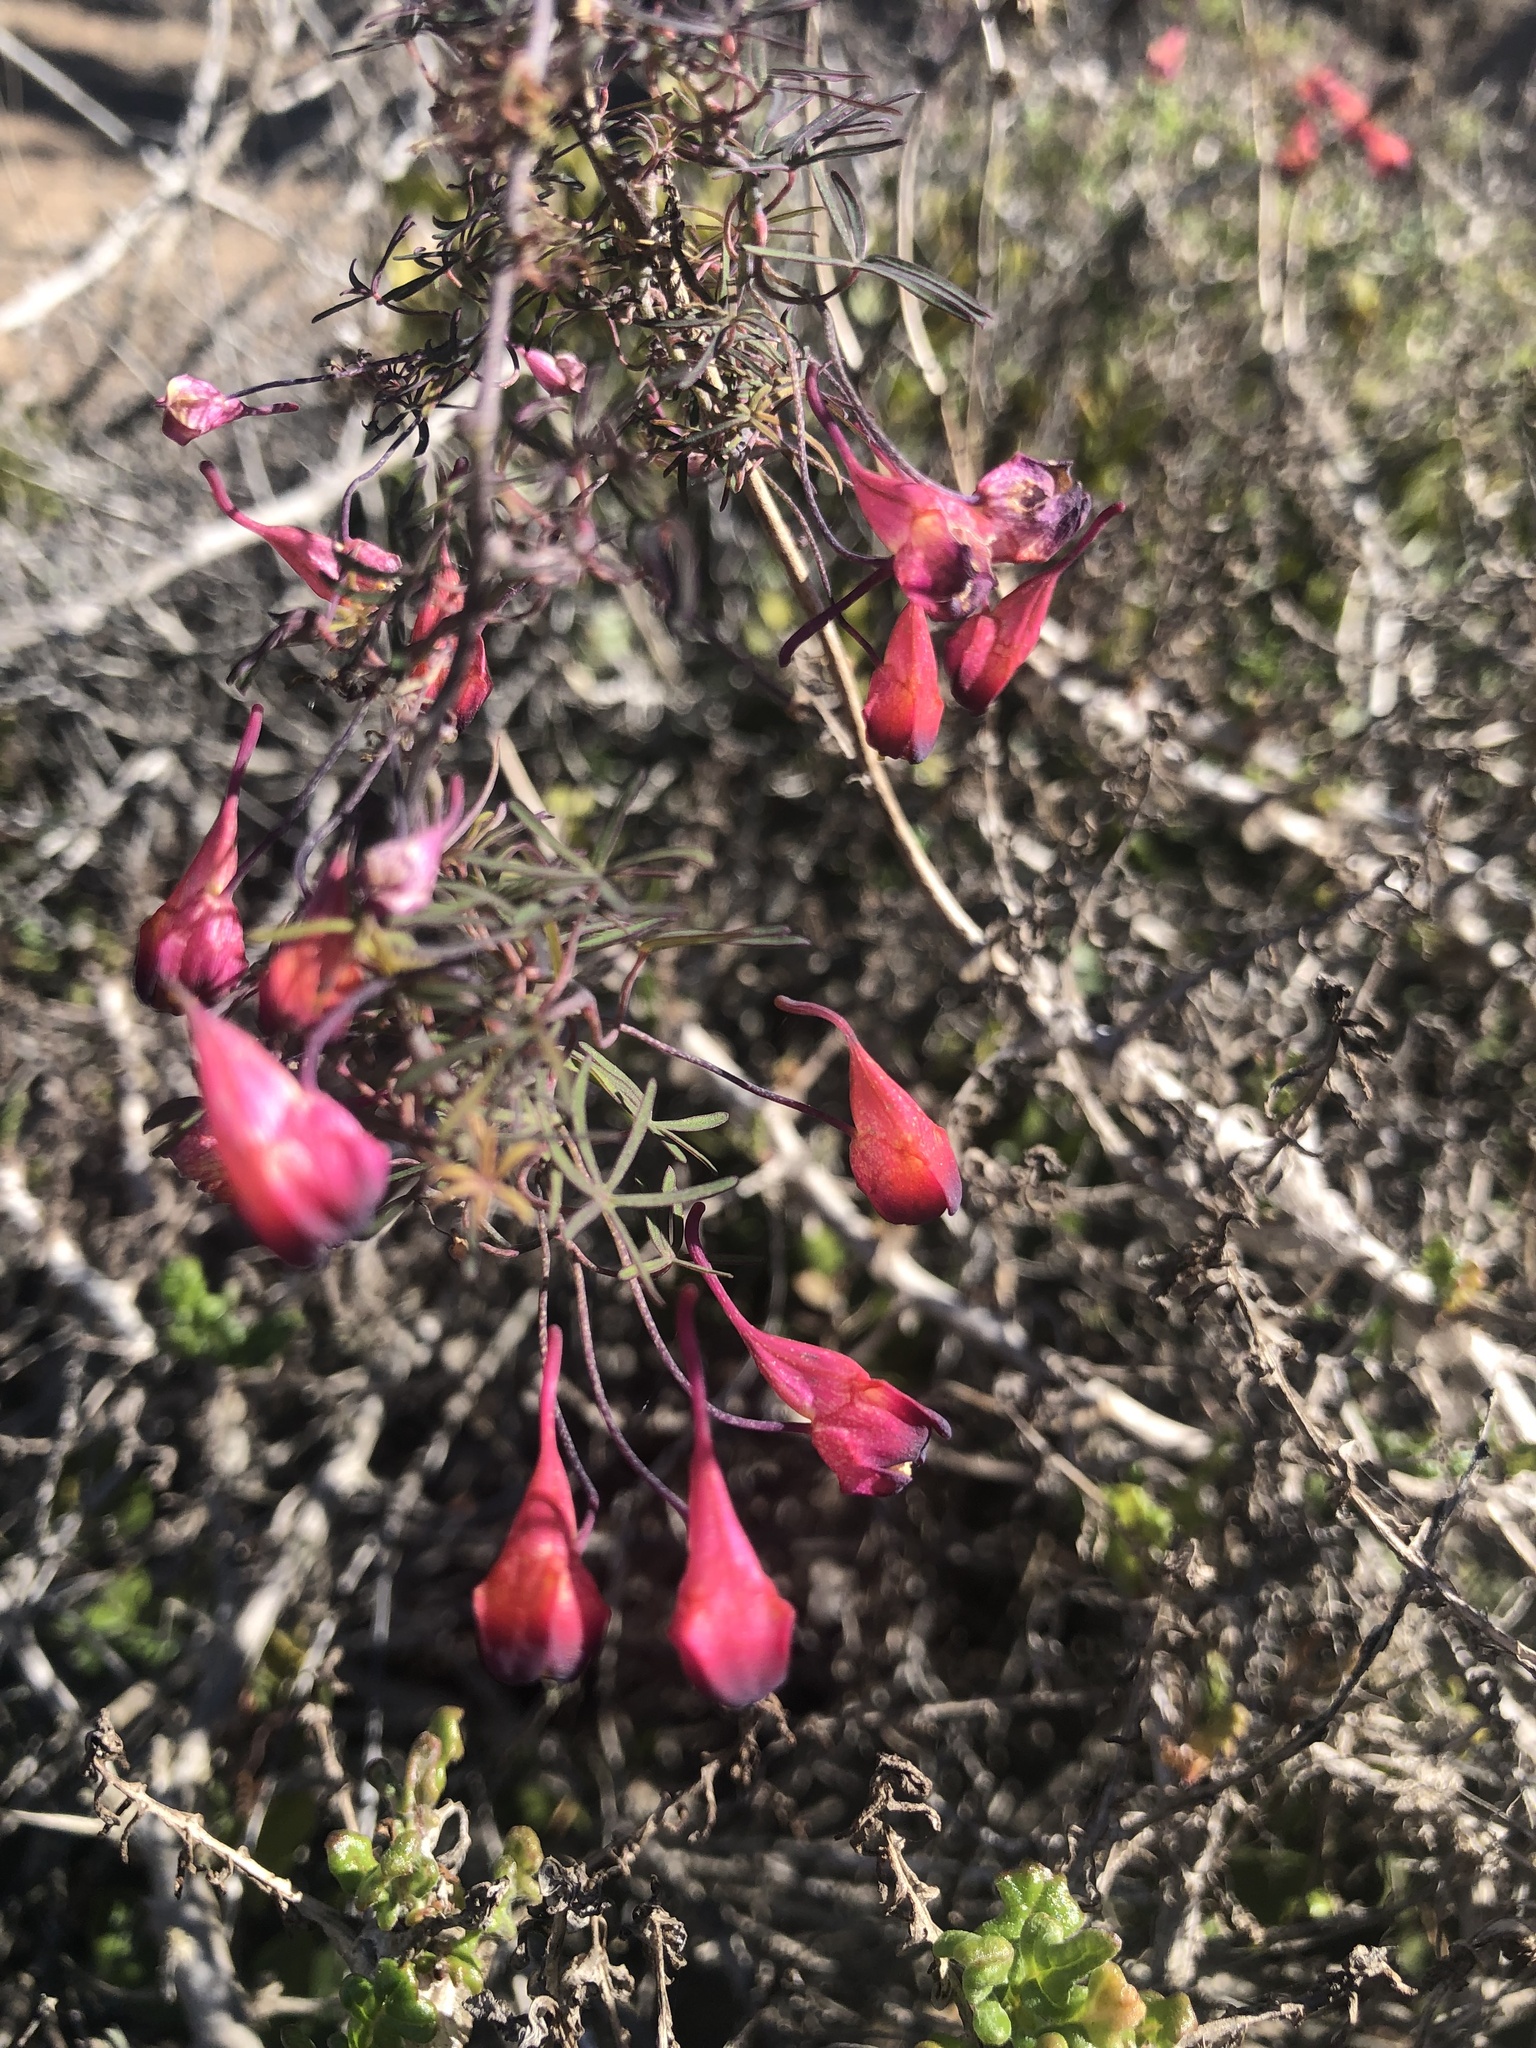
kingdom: Plantae
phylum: Tracheophyta
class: Magnoliopsida
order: Brassicales
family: Tropaeolaceae
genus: Tropaeolum
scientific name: Tropaeolum tricolor
